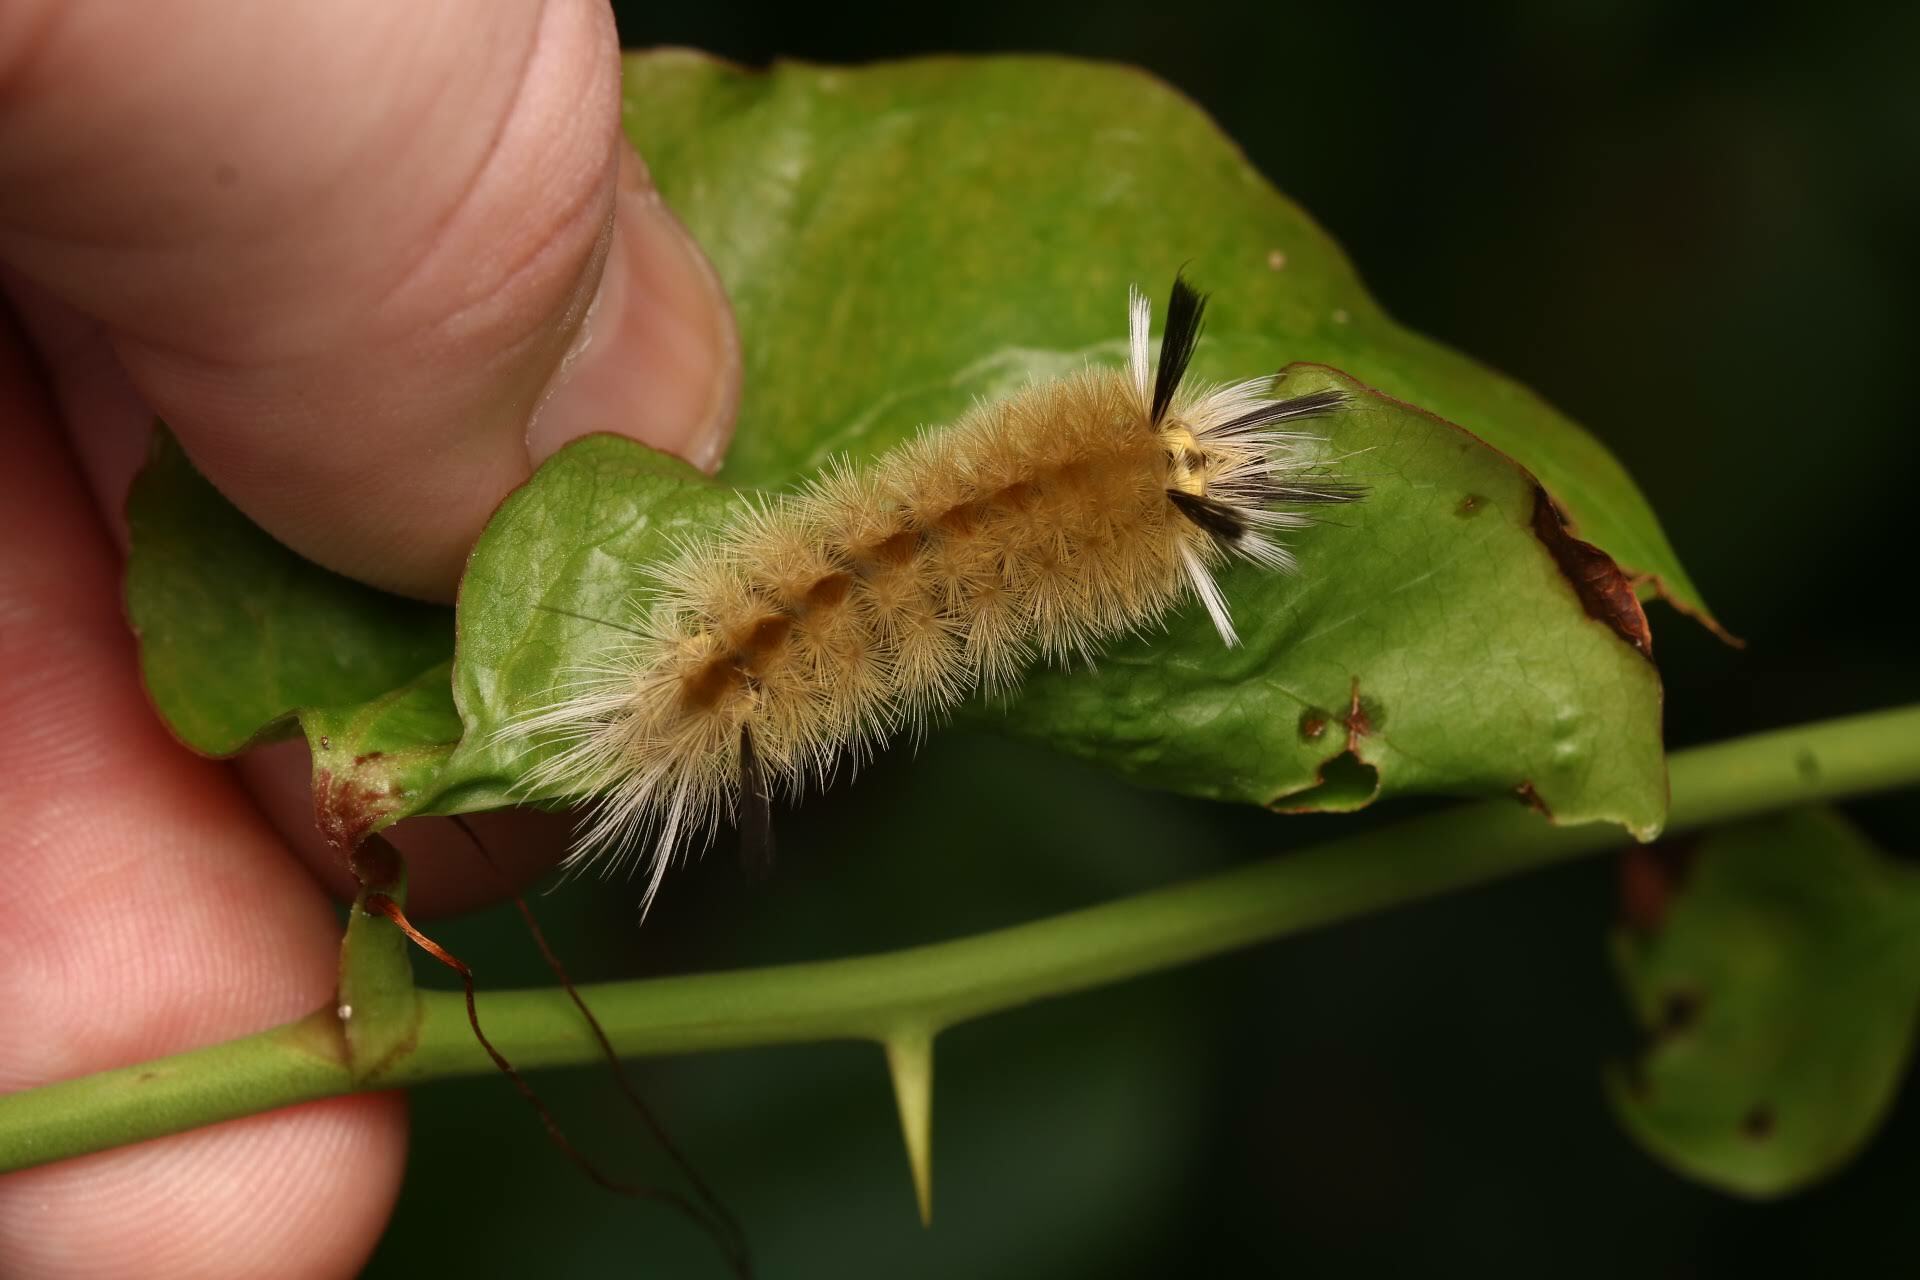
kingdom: Animalia
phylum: Arthropoda
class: Insecta
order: Lepidoptera
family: Erebidae
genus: Halysidota
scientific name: Halysidota tessellaris
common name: Banded tussock moth
